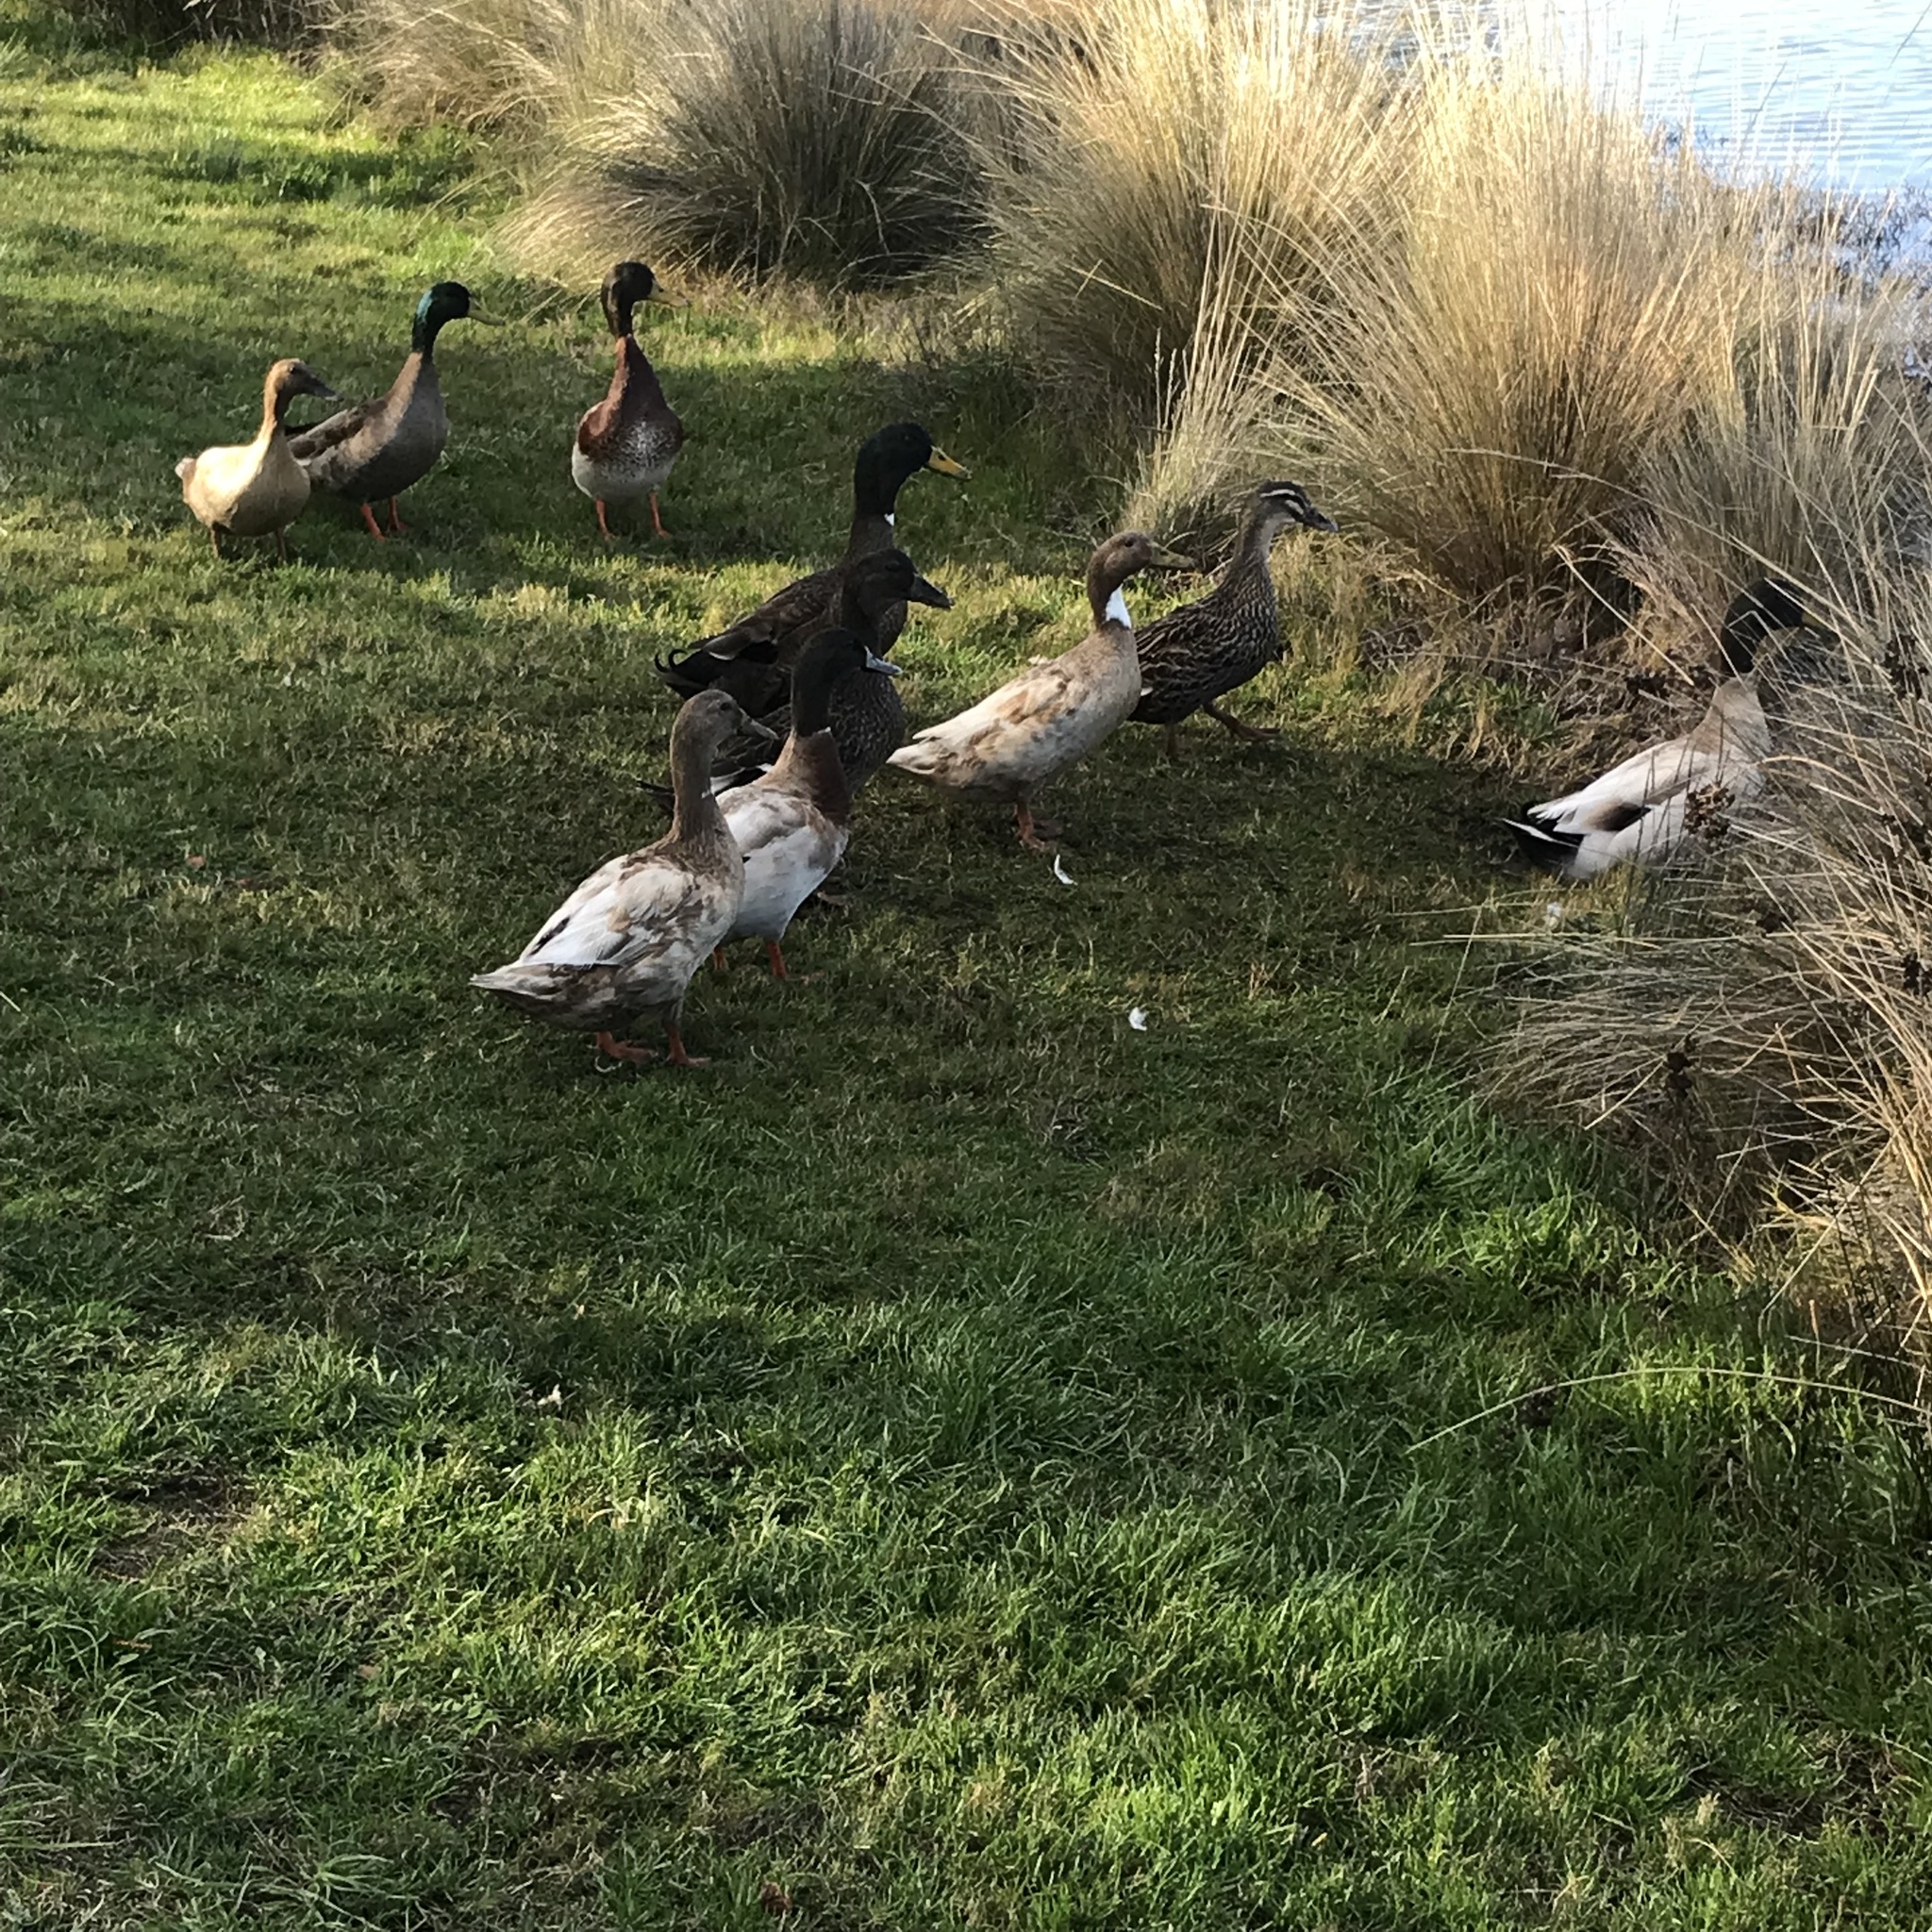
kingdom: Animalia
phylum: Chordata
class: Aves
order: Anseriformes
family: Anatidae
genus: Anas
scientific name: Anas platyrhynchos
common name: Mallard
